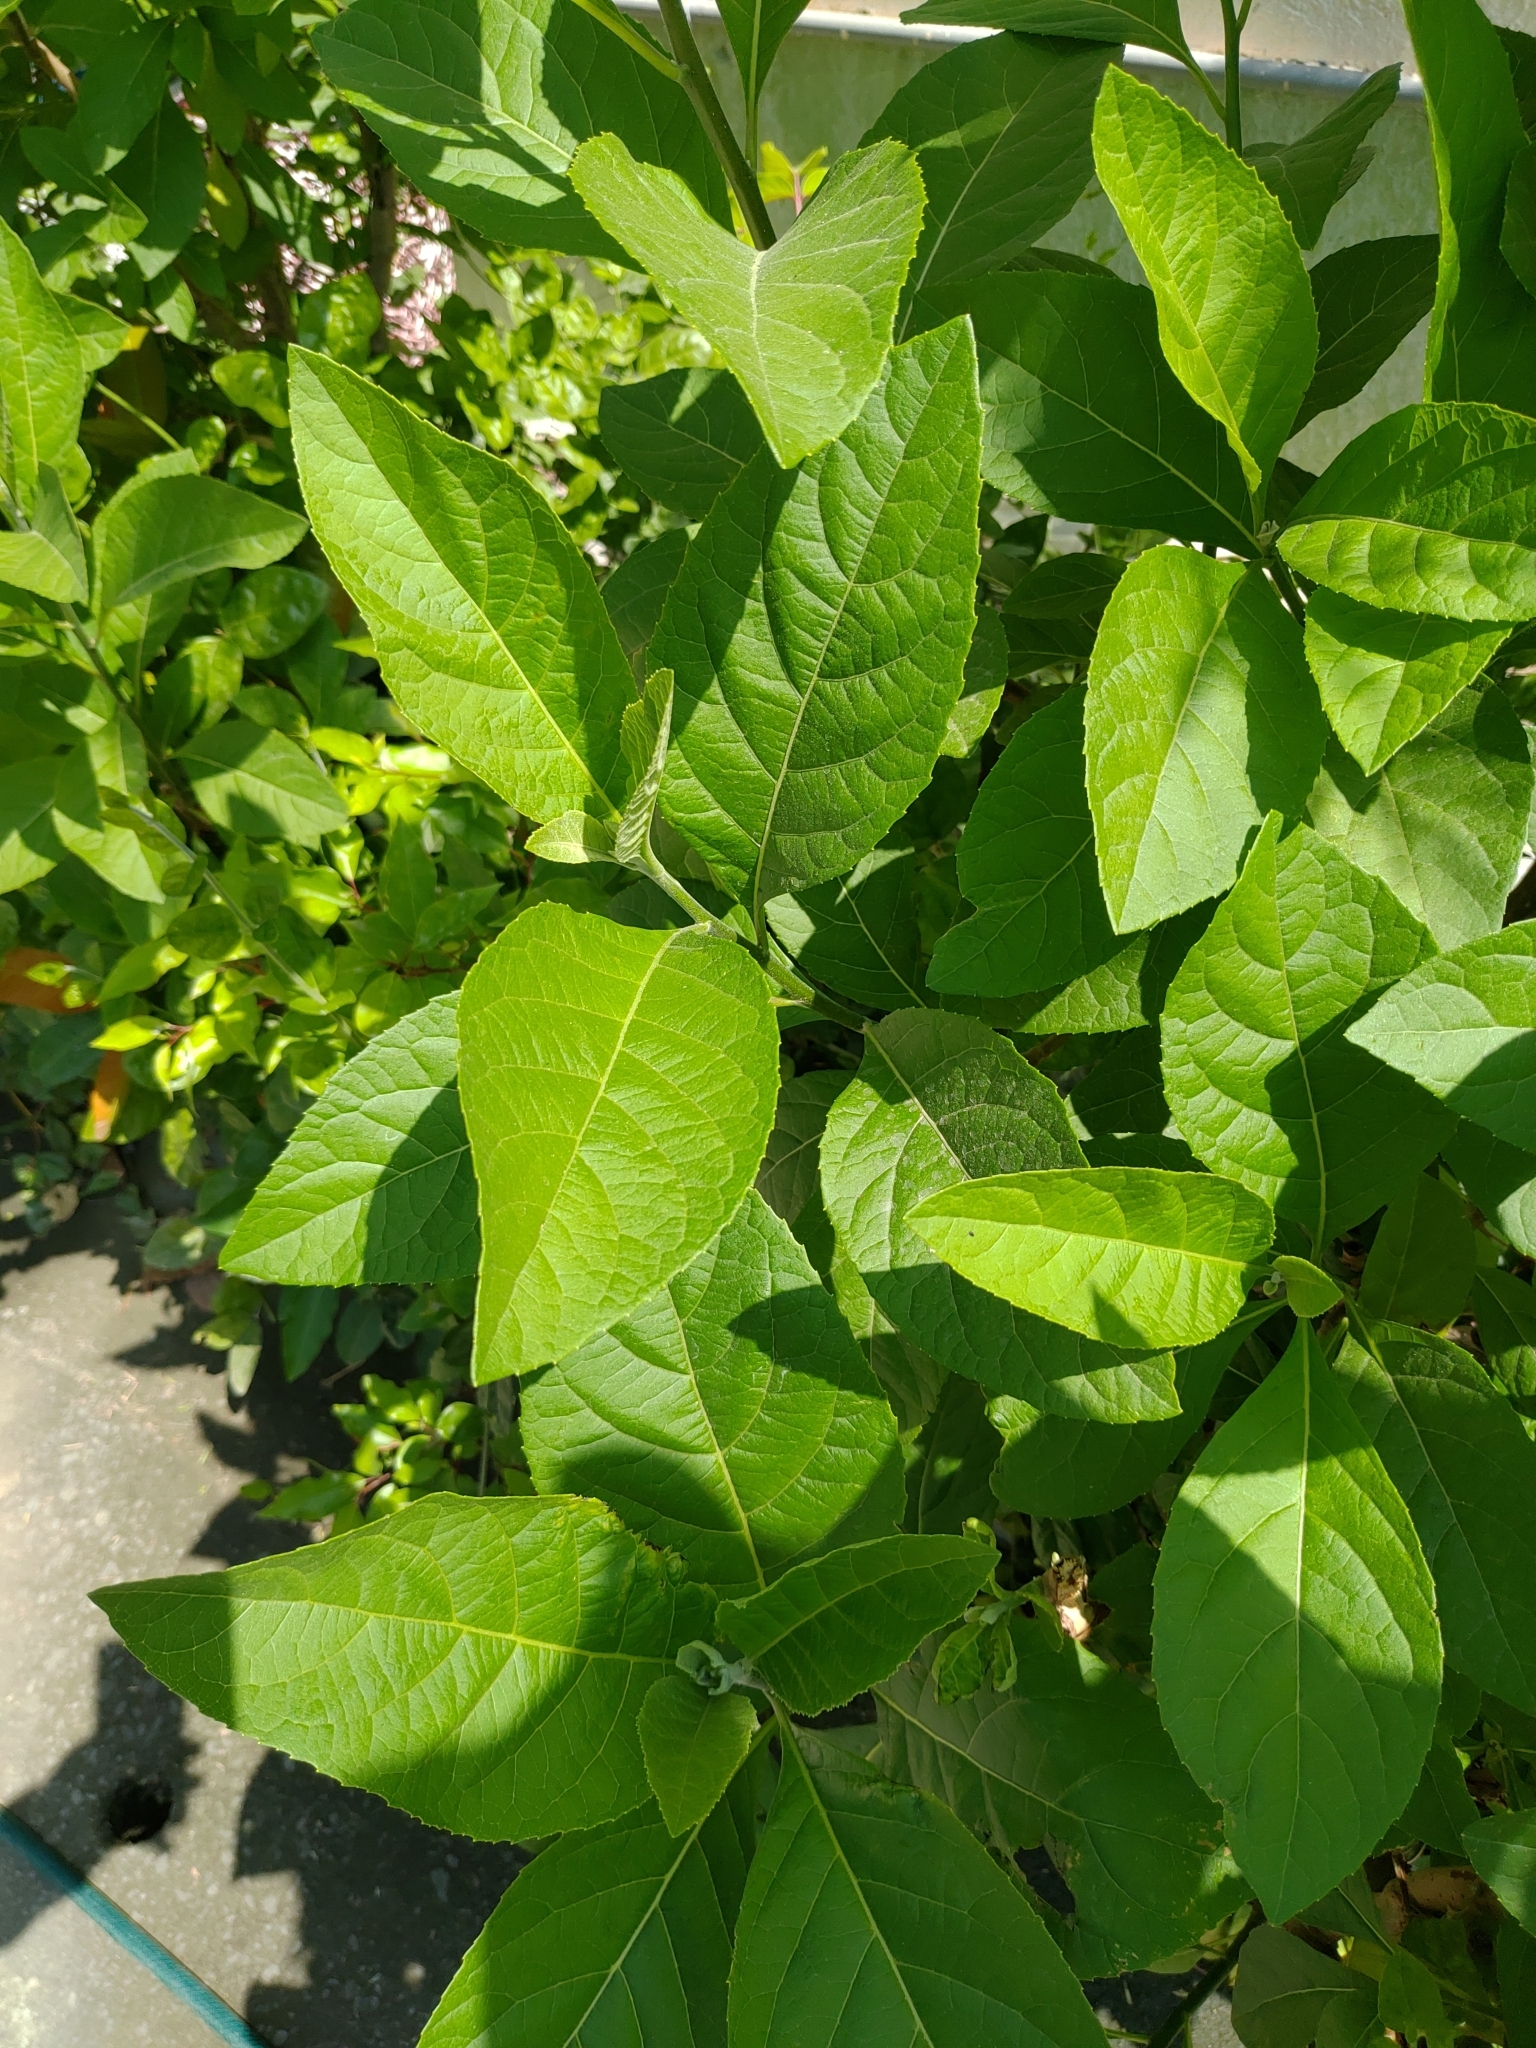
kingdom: Plantae
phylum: Tracheophyta
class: Magnoliopsida
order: Asterales
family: Asteraceae
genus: Gymnanthemum
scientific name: Gymnanthemum amygdalinum
